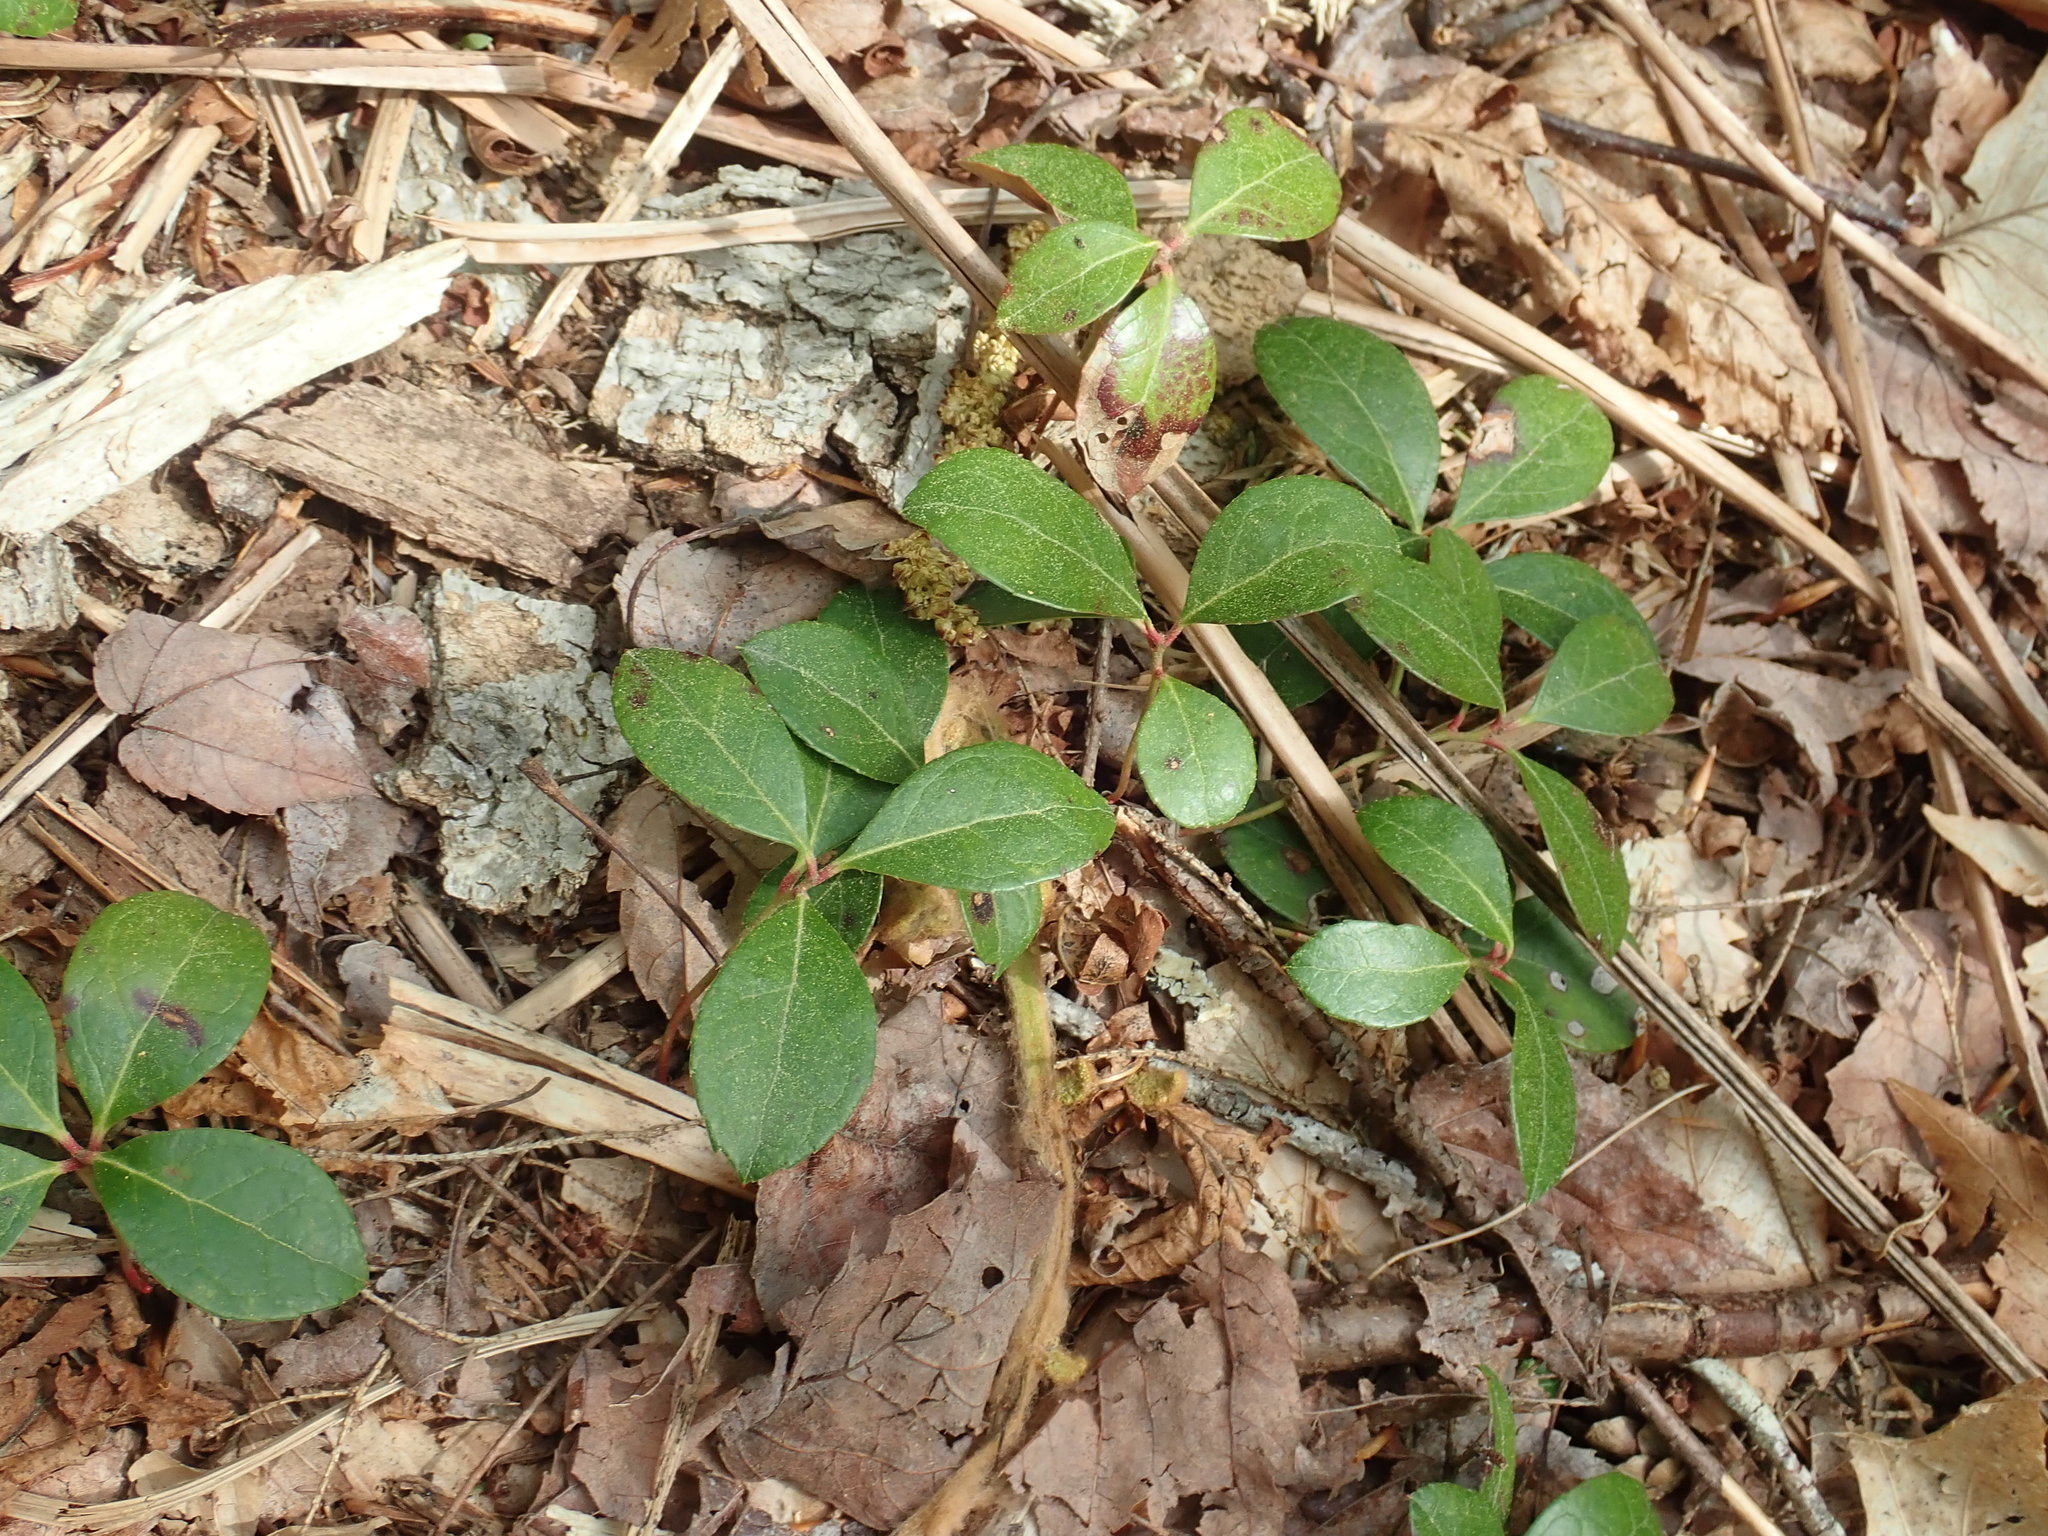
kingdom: Plantae
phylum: Tracheophyta
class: Magnoliopsida
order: Ericales
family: Ericaceae
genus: Gaultheria
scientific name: Gaultheria procumbens
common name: Checkerberry
